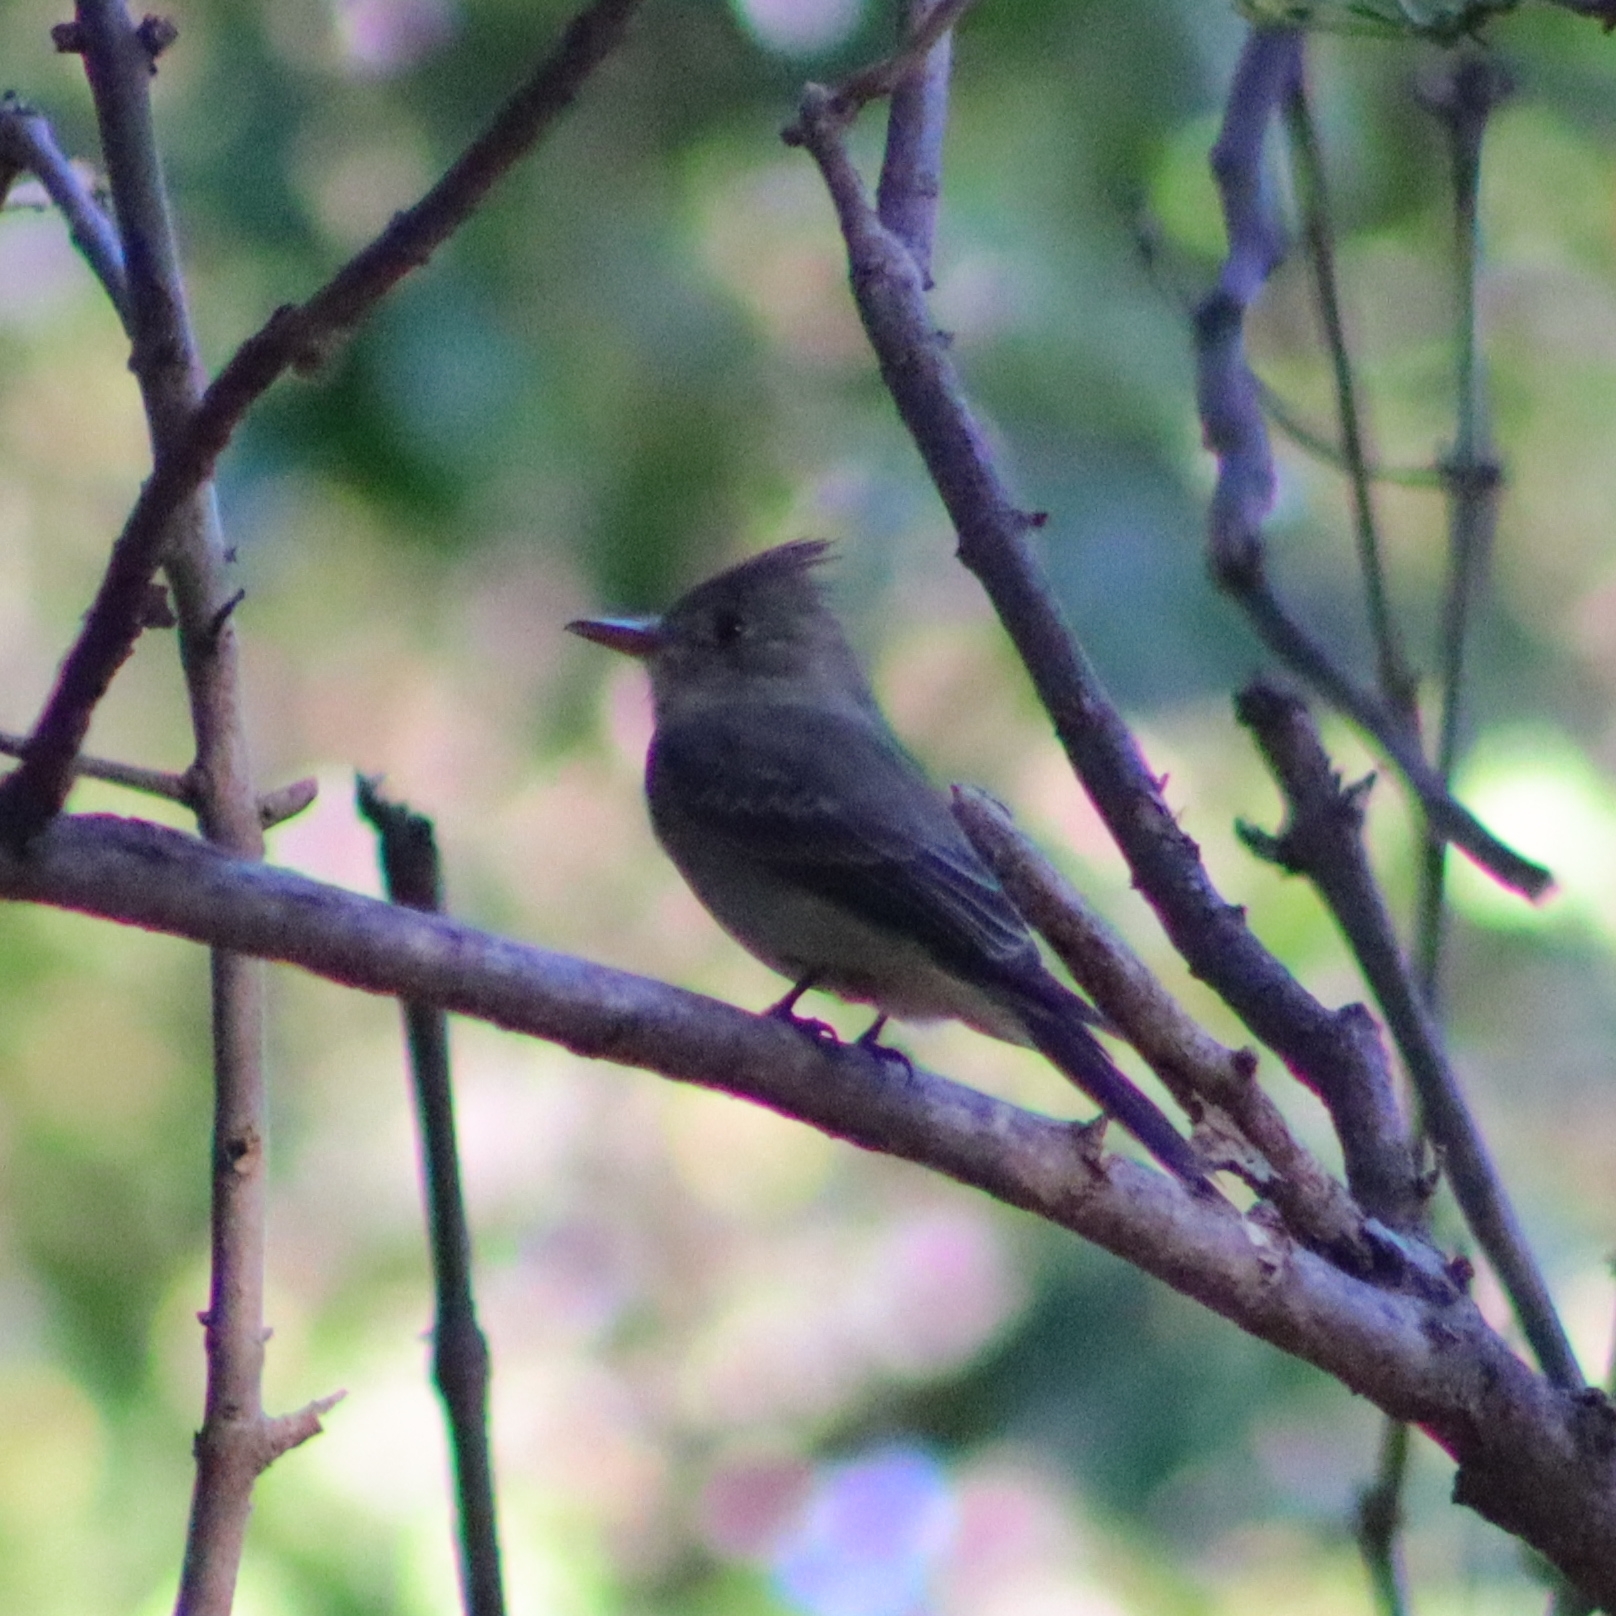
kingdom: Animalia
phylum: Chordata
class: Aves
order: Passeriformes
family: Tyrannidae
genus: Contopus
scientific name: Contopus pertinax
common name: Greater pewee
